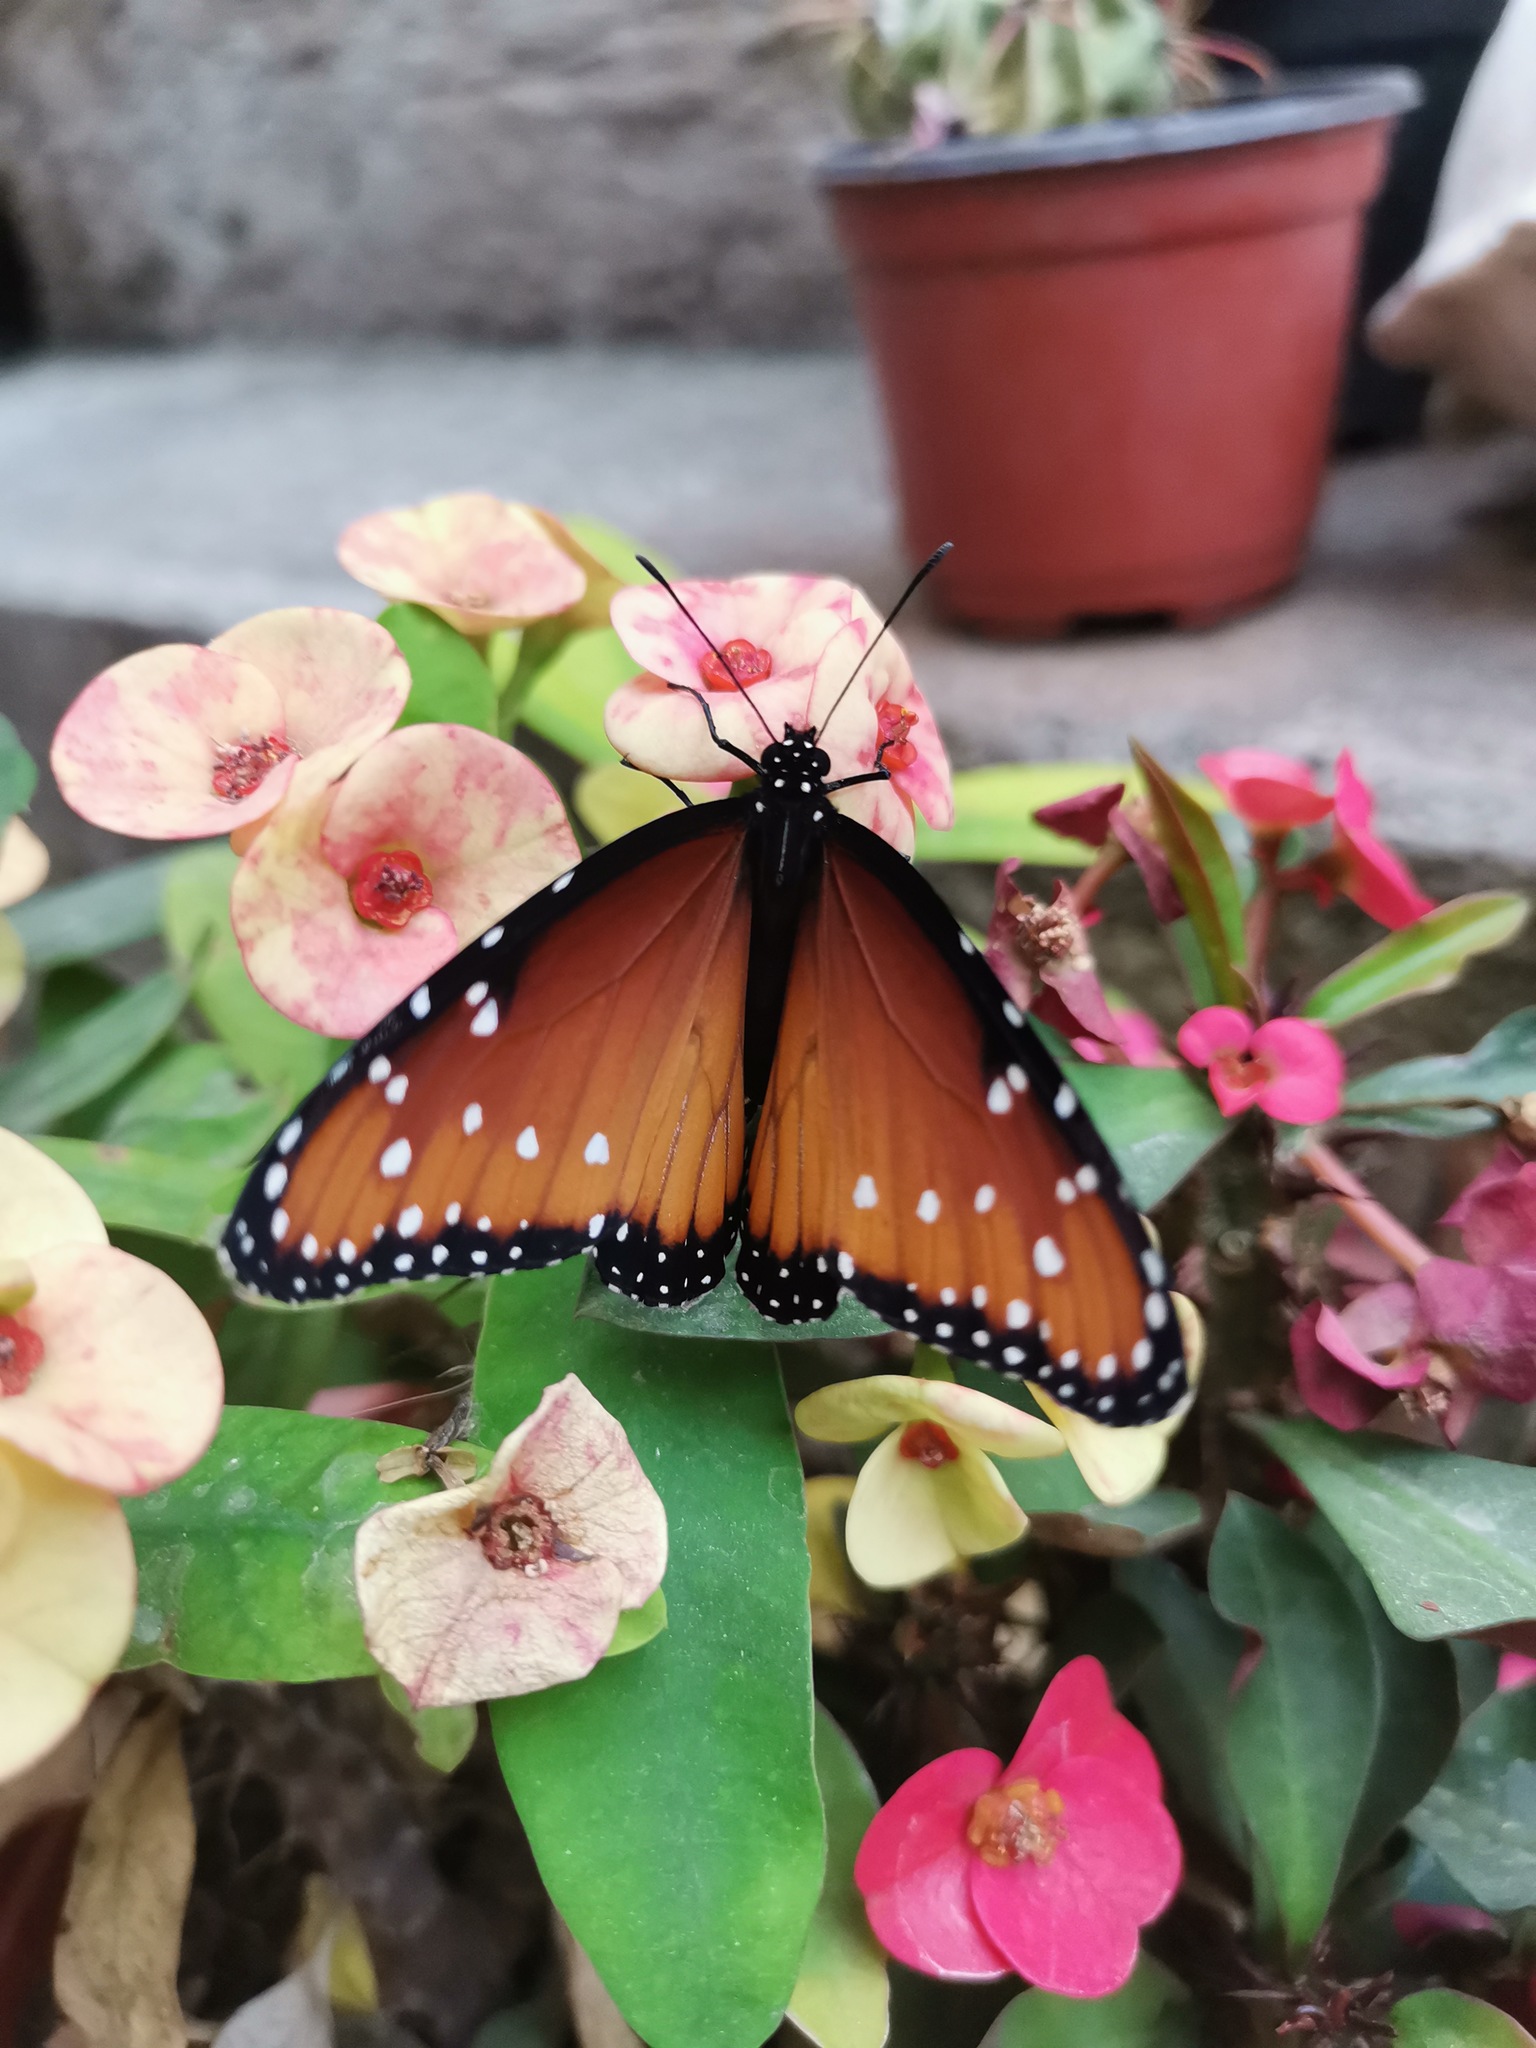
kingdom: Animalia
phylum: Arthropoda
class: Insecta
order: Lepidoptera
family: Nymphalidae
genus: Danaus
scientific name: Danaus gilippus
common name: Queen
